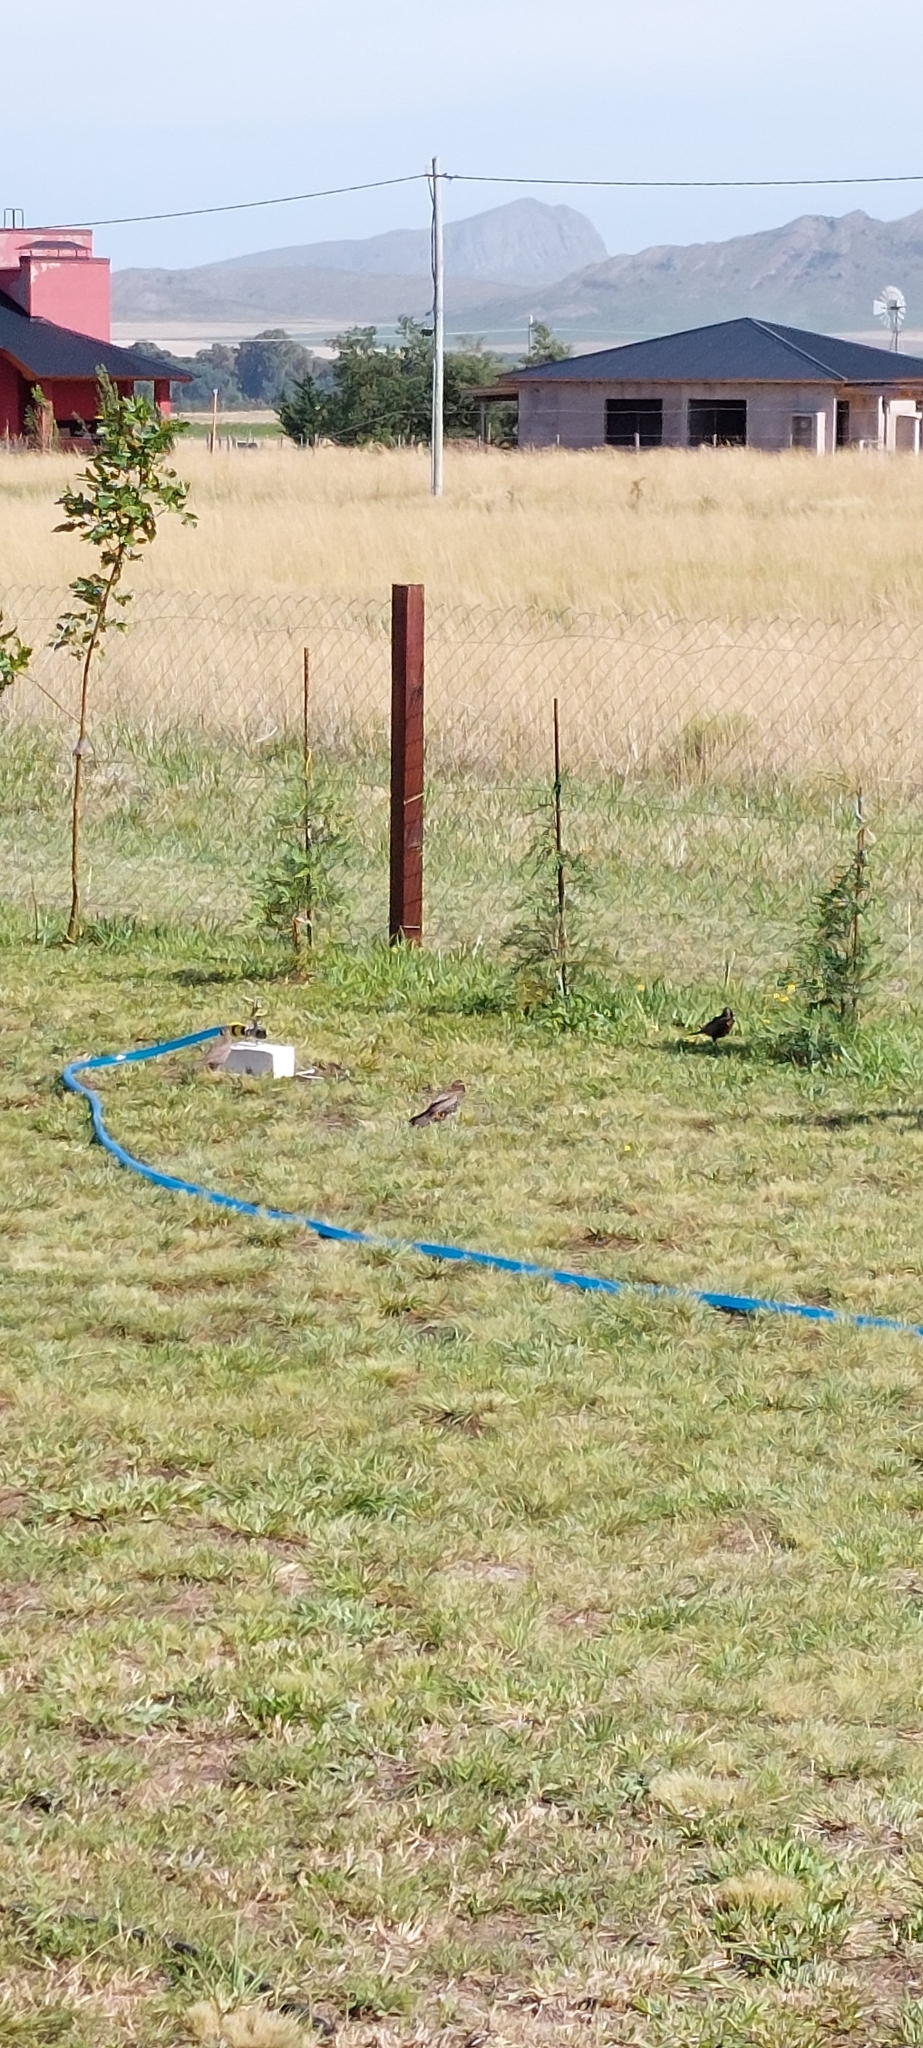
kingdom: Animalia
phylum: Chordata
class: Aves
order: Passeriformes
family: Icteridae
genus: Sturnella
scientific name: Sturnella loyca
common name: Long-tailed meadowlark
